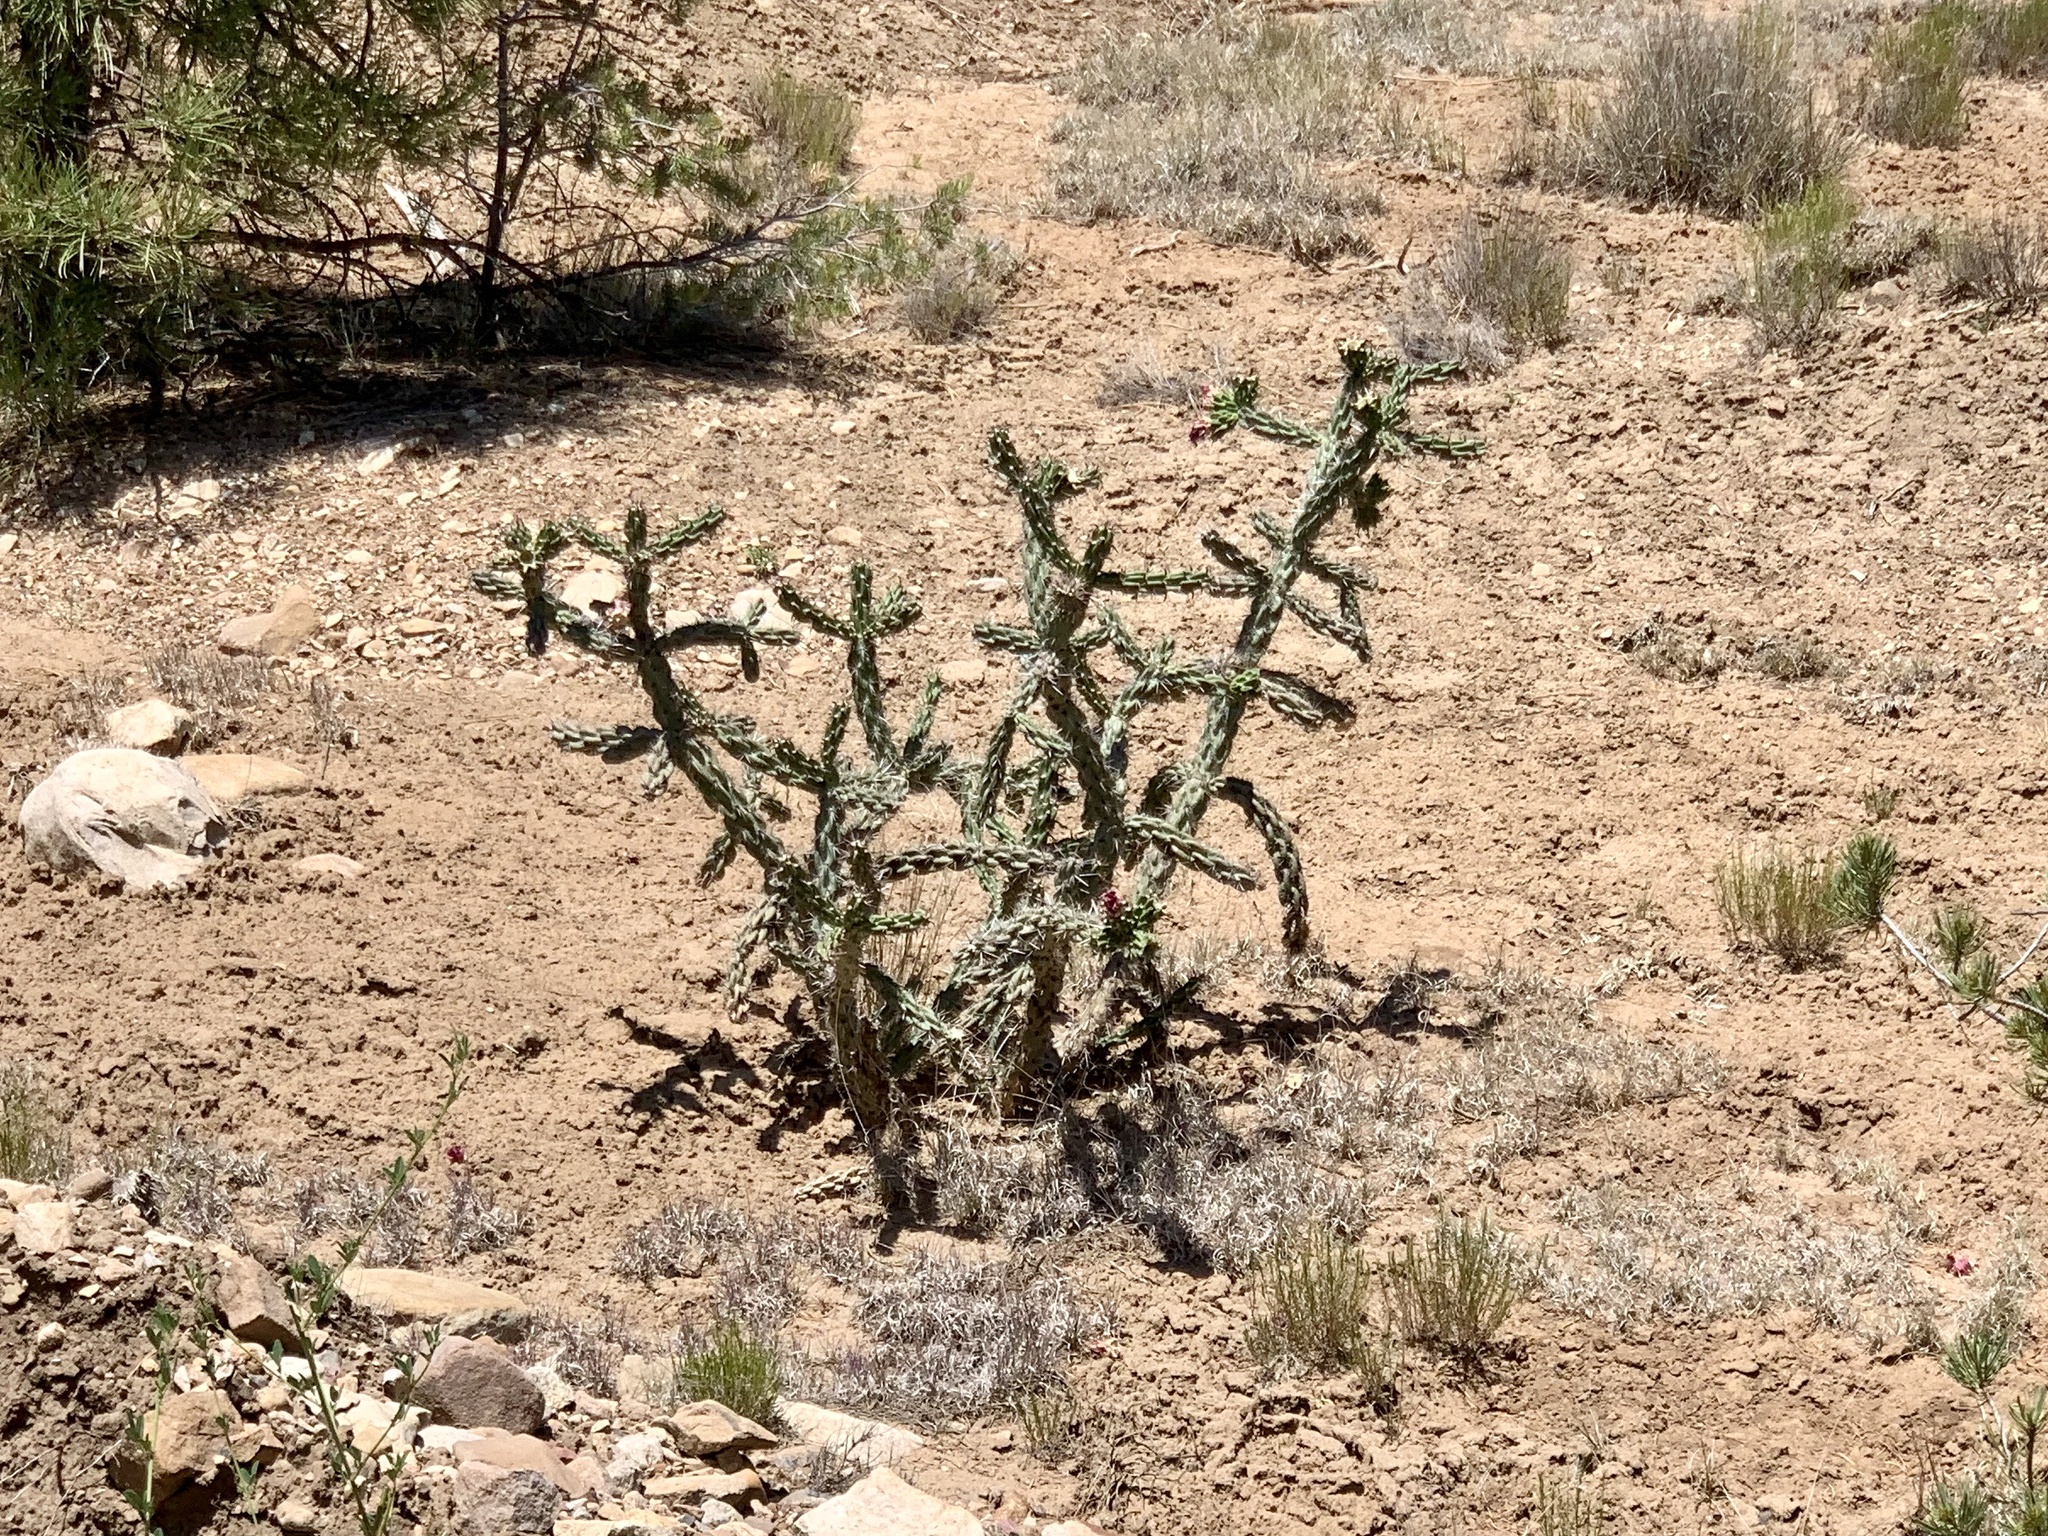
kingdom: Plantae
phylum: Tracheophyta
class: Magnoliopsida
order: Caryophyllales
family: Cactaceae
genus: Cylindropuntia
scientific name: Cylindropuntia imbricata
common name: Candelabrum cactus
